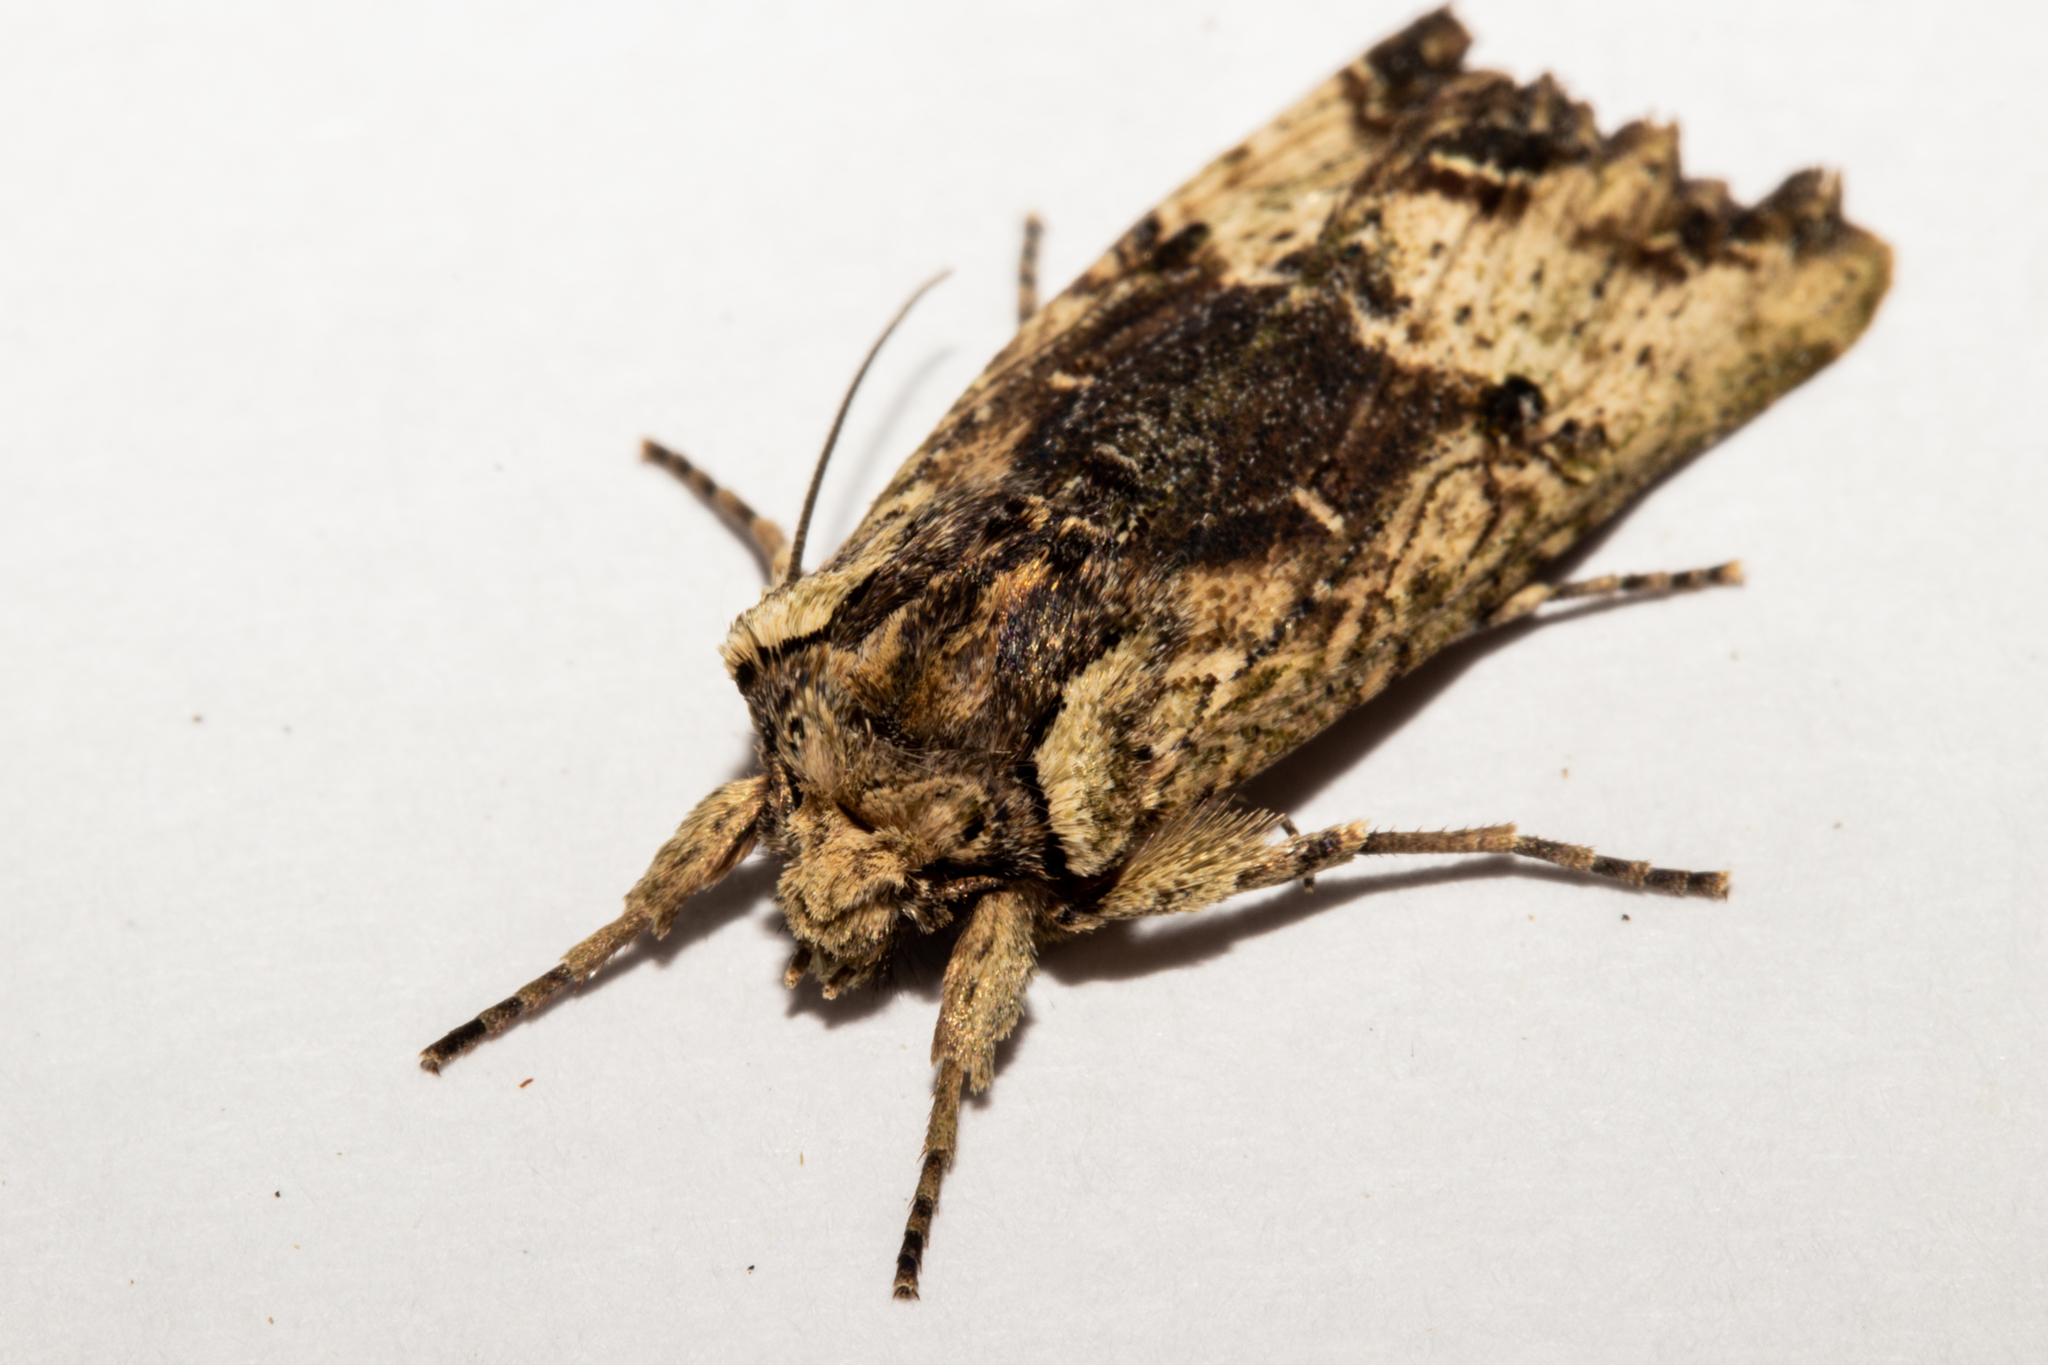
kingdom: Animalia
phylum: Arthropoda
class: Insecta
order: Lepidoptera
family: Noctuidae
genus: Meterana
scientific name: Meterana coeleno
